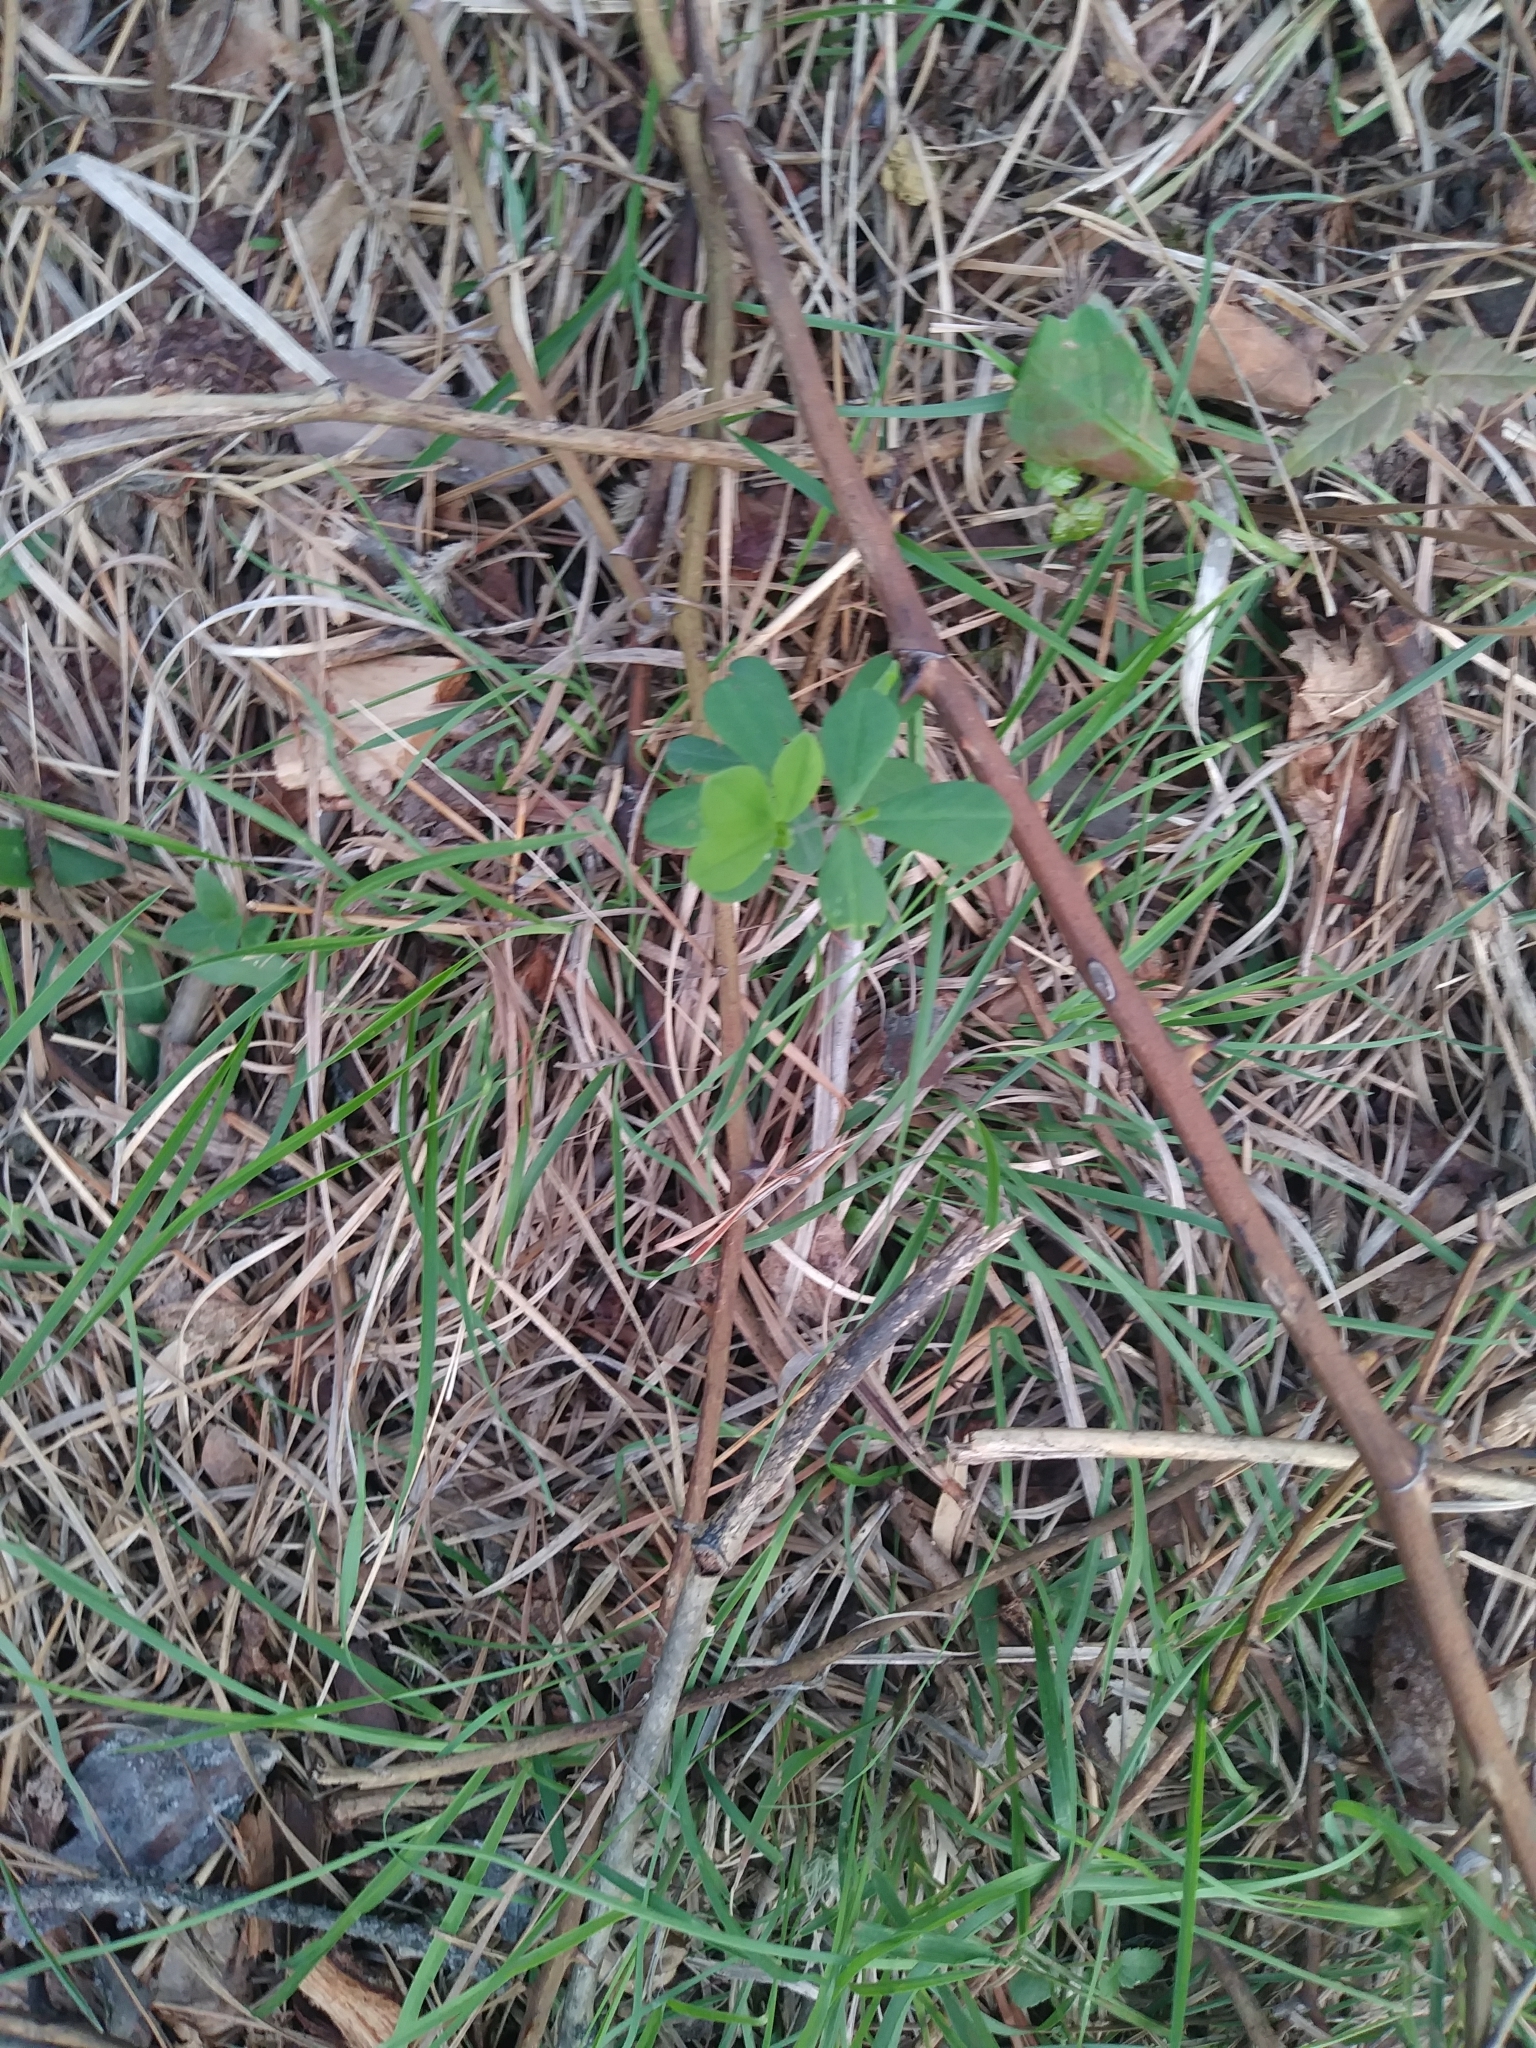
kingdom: Plantae
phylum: Tracheophyta
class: Magnoliopsida
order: Fabales
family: Fabaceae
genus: Baptisia
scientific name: Baptisia tinctoria
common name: Wild indigo
